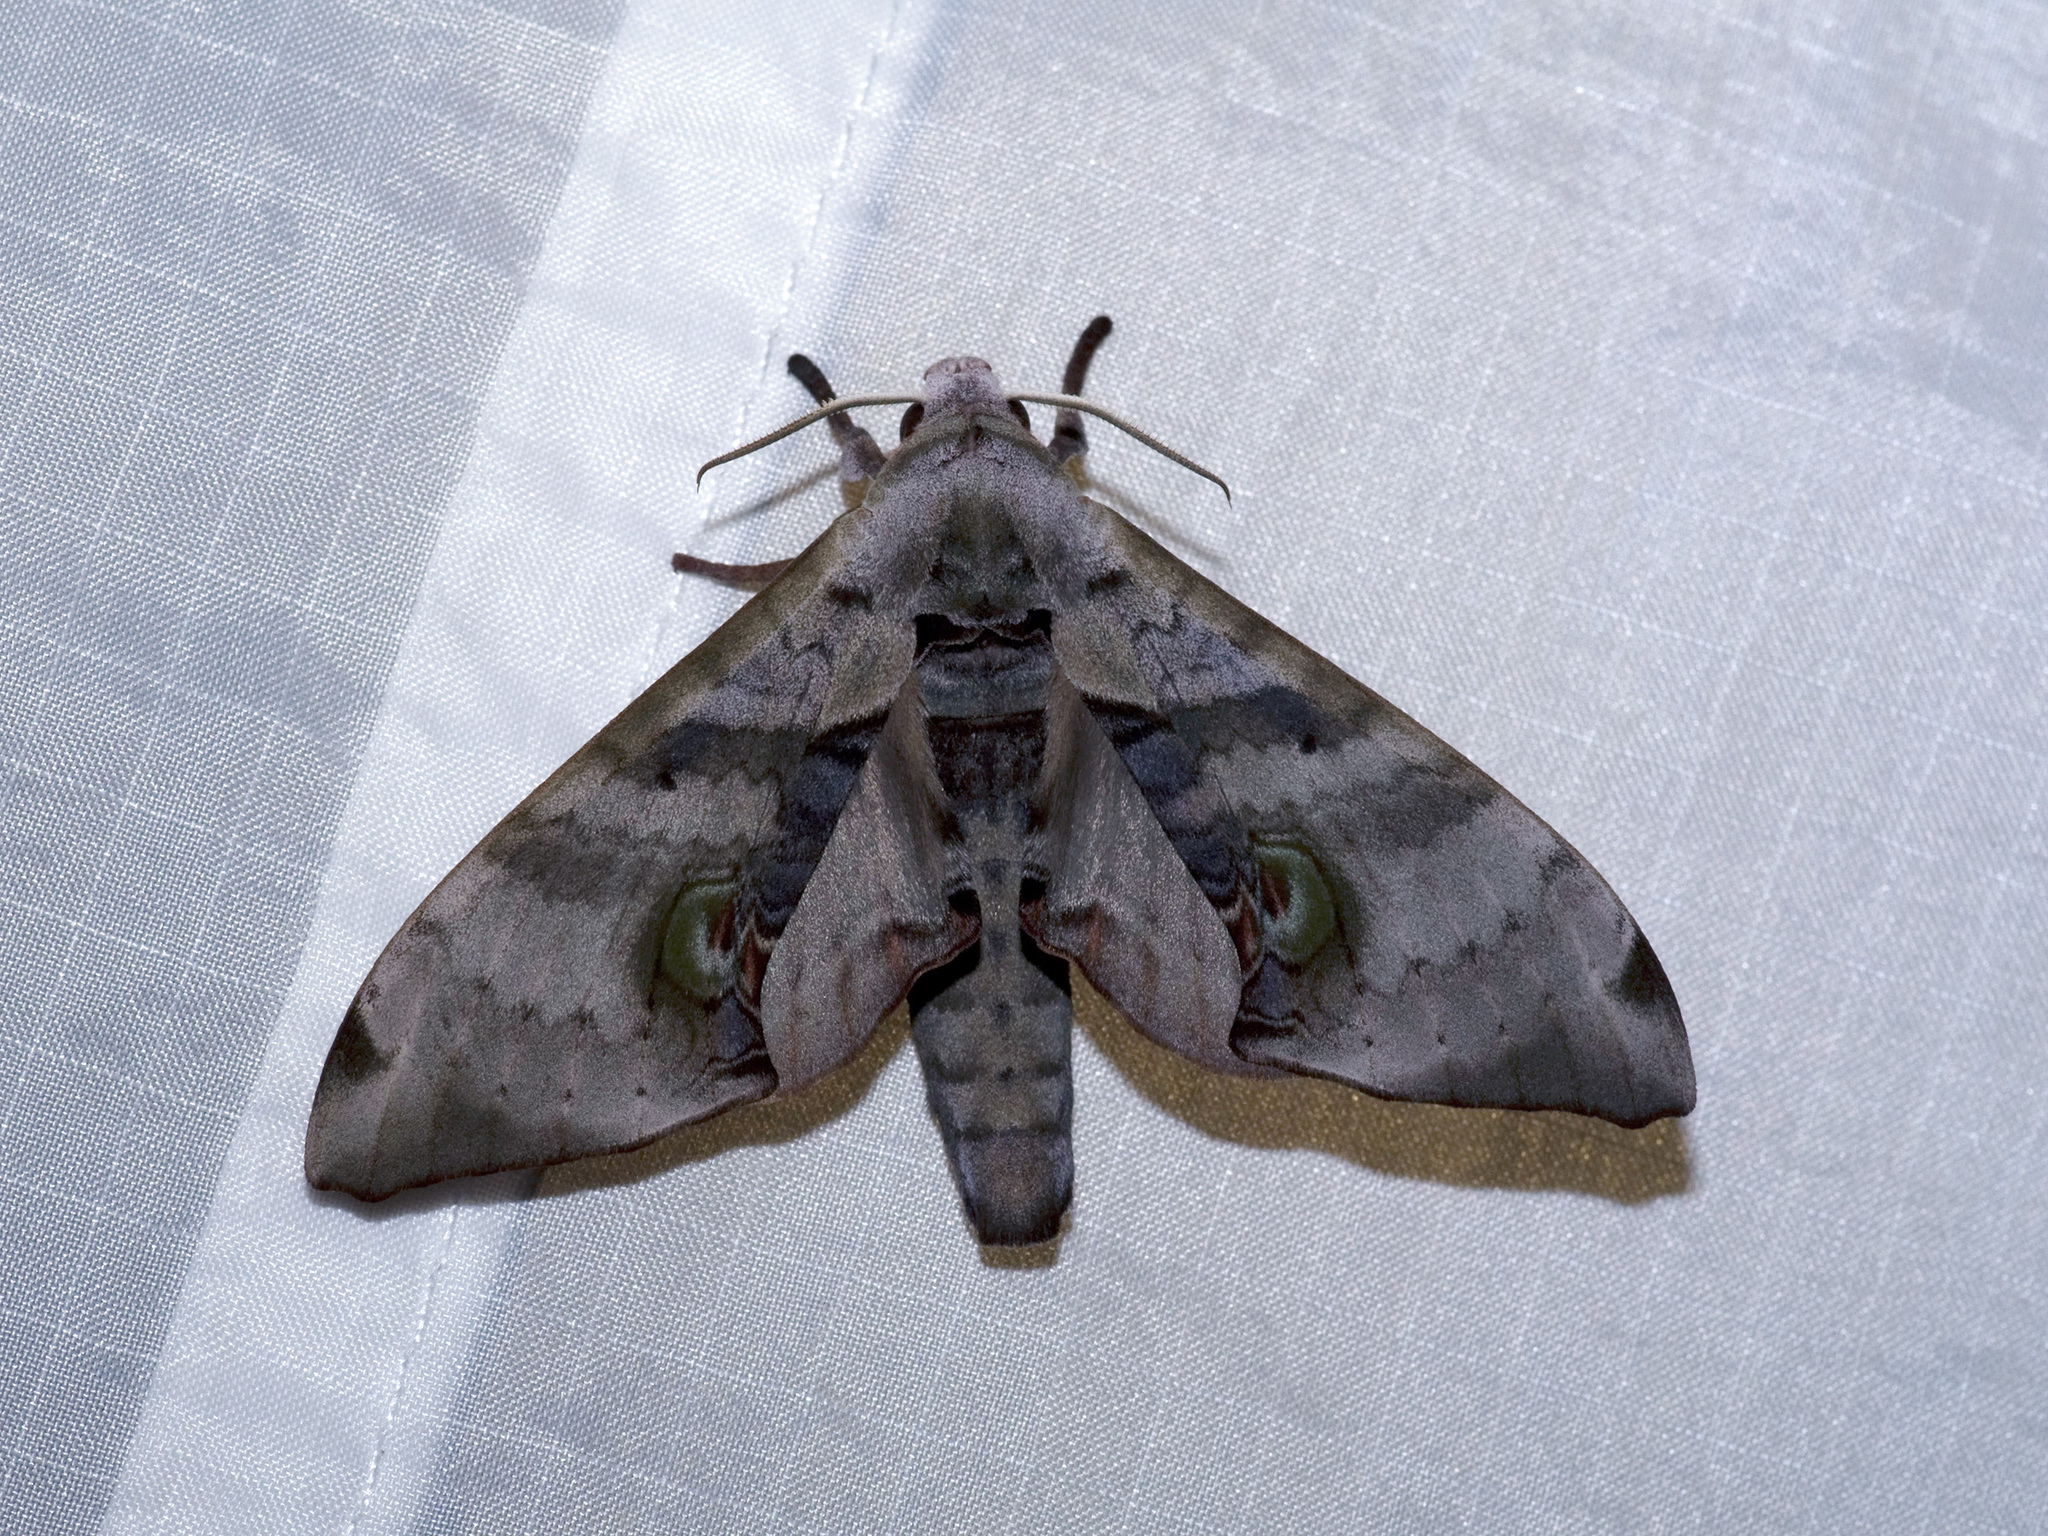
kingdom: Animalia
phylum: Arthropoda
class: Insecta
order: Lepidoptera
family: Sphingidae
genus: Daphnusa
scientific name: Daphnusa ocellaris
